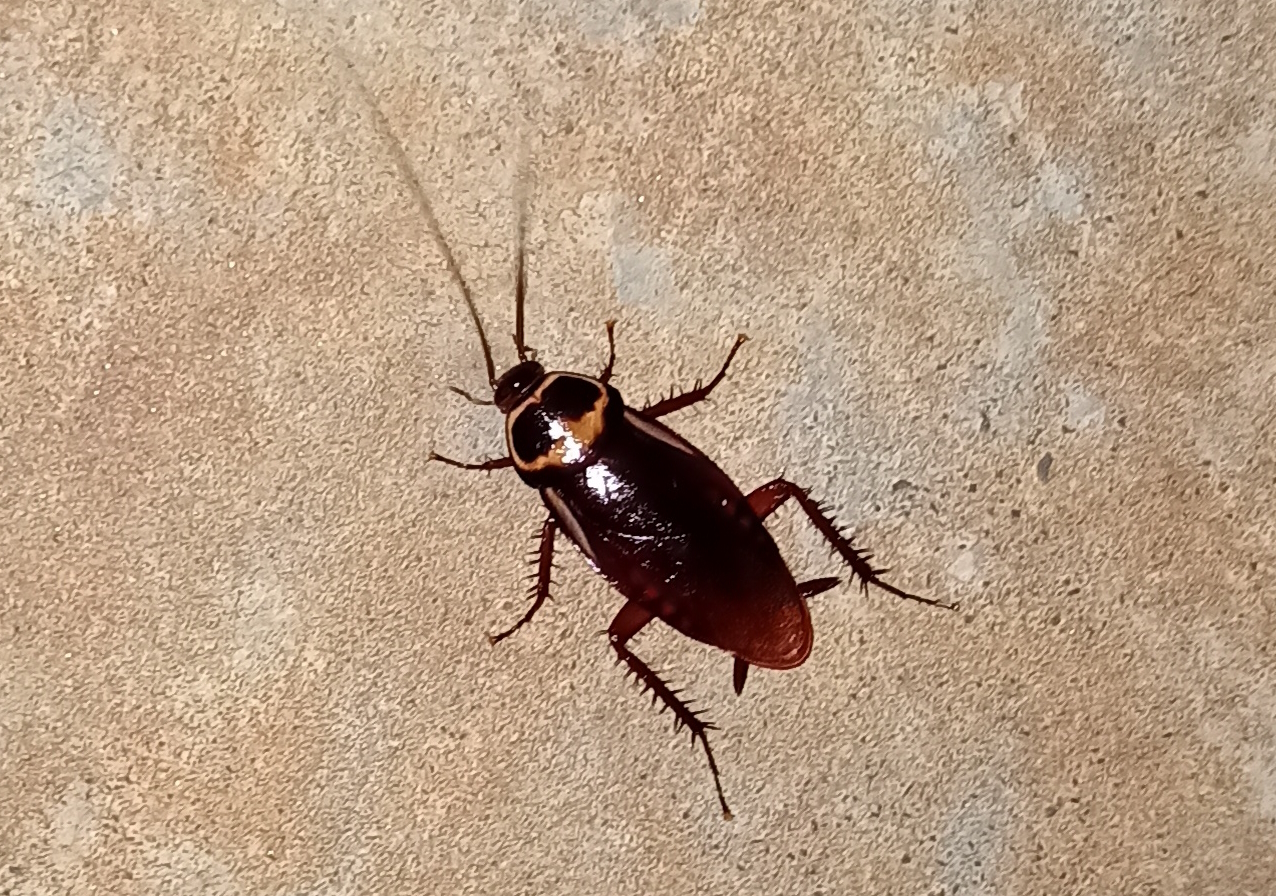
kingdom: Animalia
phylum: Arthropoda
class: Insecta
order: Blattodea
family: Blattidae
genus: Periplaneta
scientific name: Periplaneta australasiae
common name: Australian cockroach
